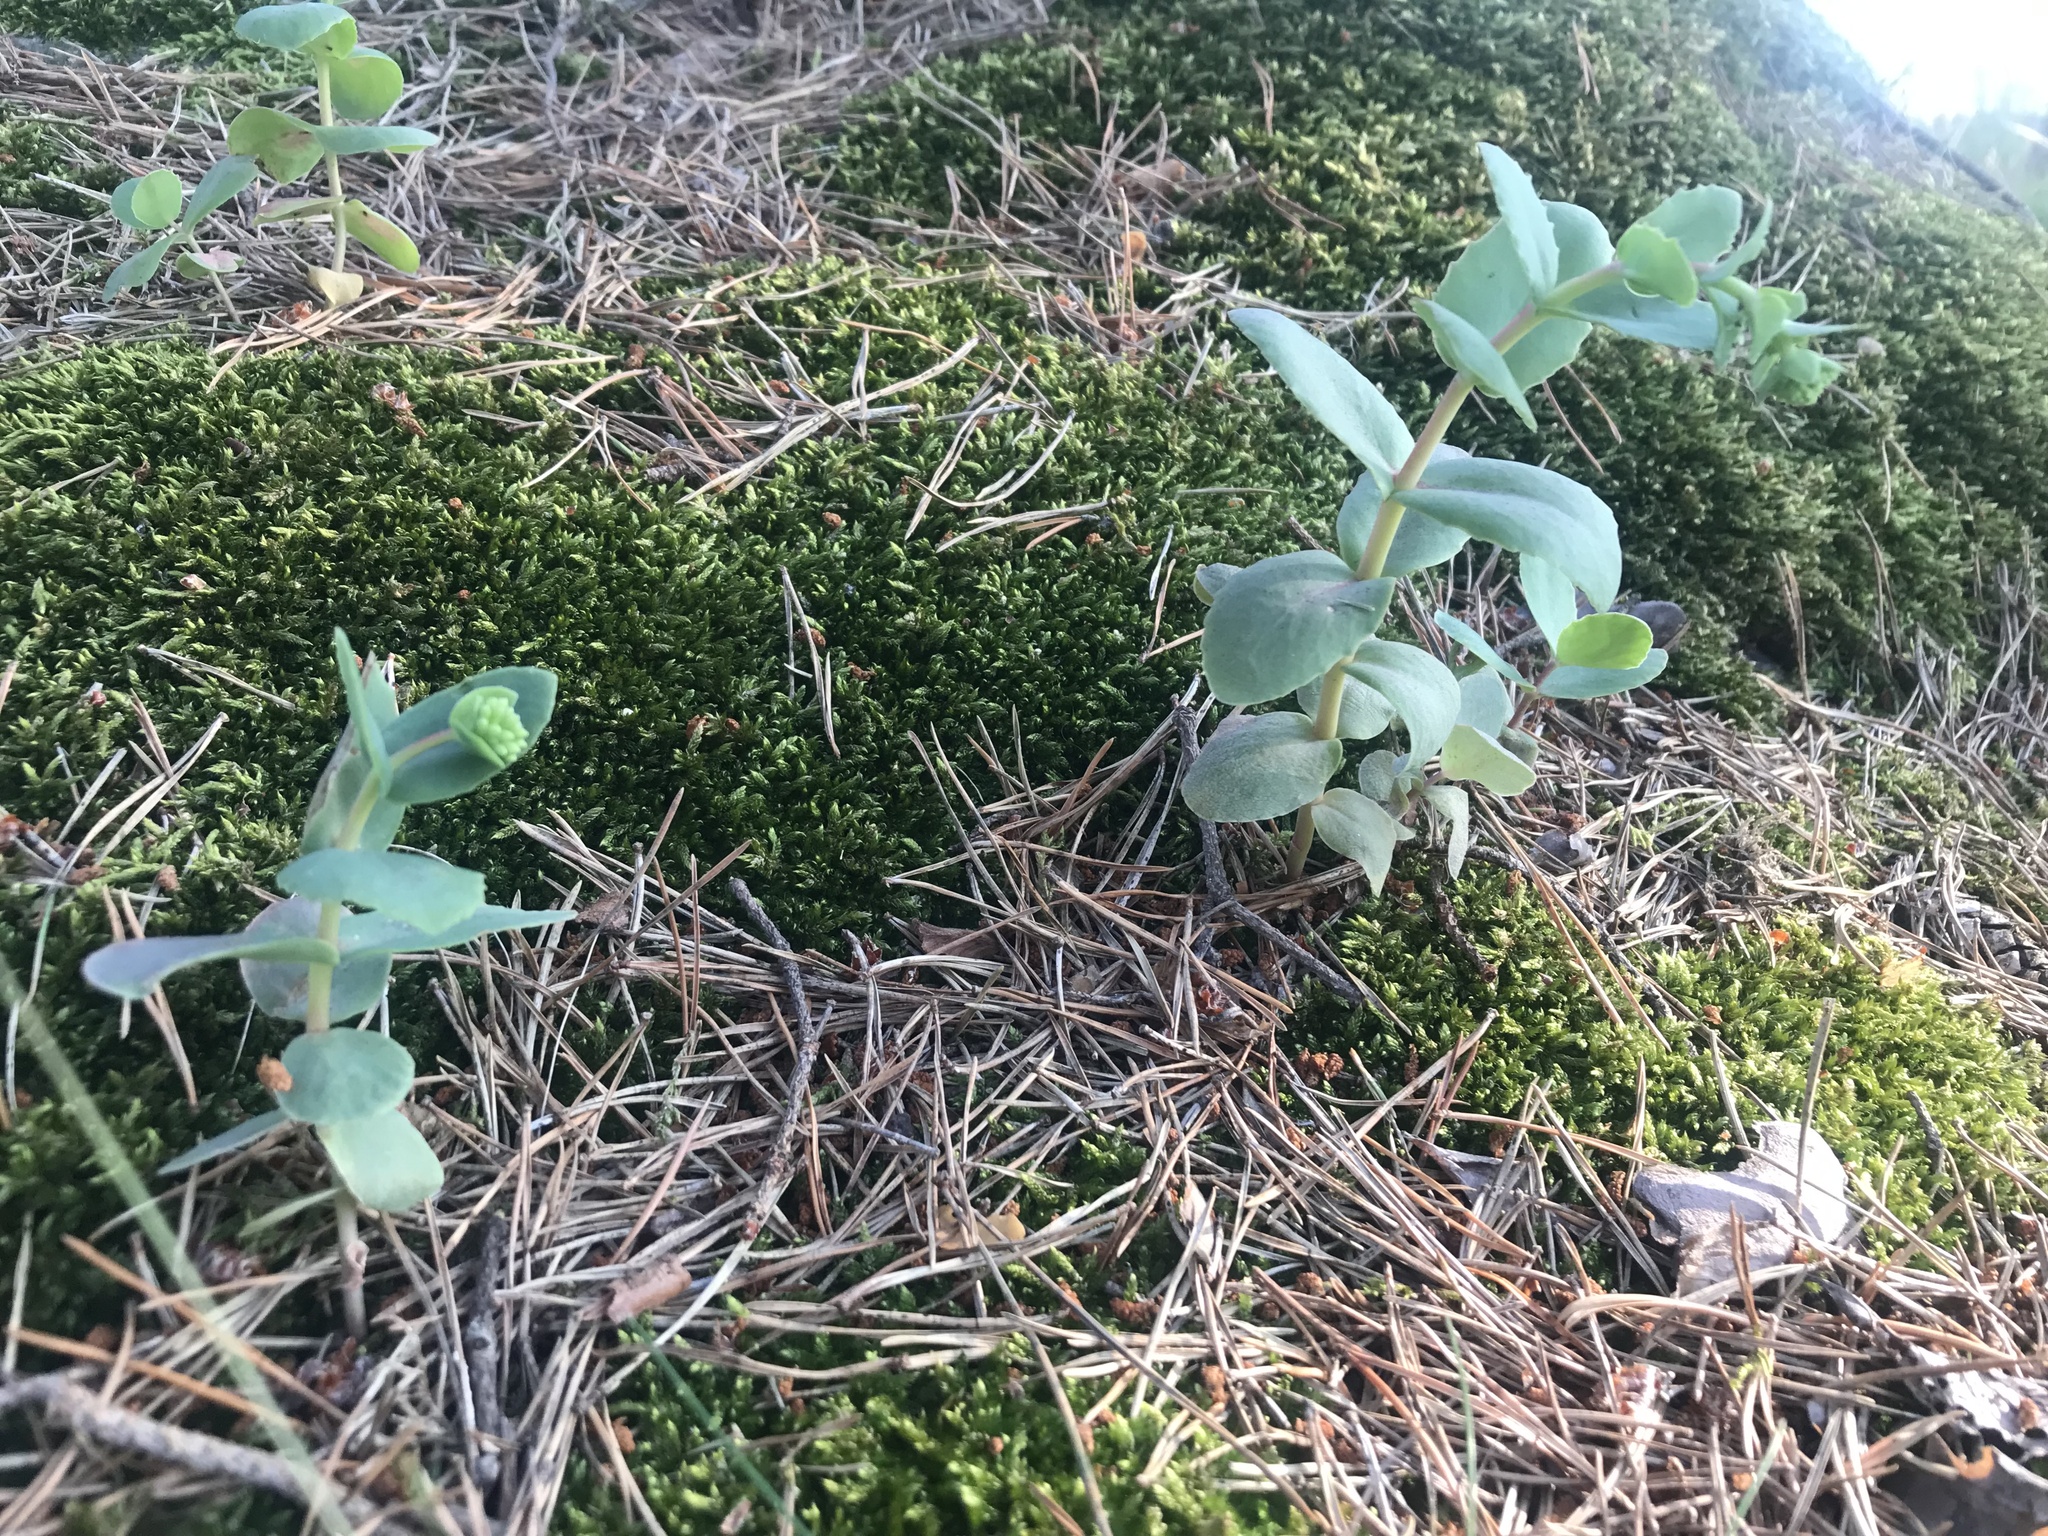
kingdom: Plantae
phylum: Tracheophyta
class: Magnoliopsida
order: Saxifragales
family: Crassulaceae
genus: Hylotelephium
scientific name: Hylotelephium maximum
